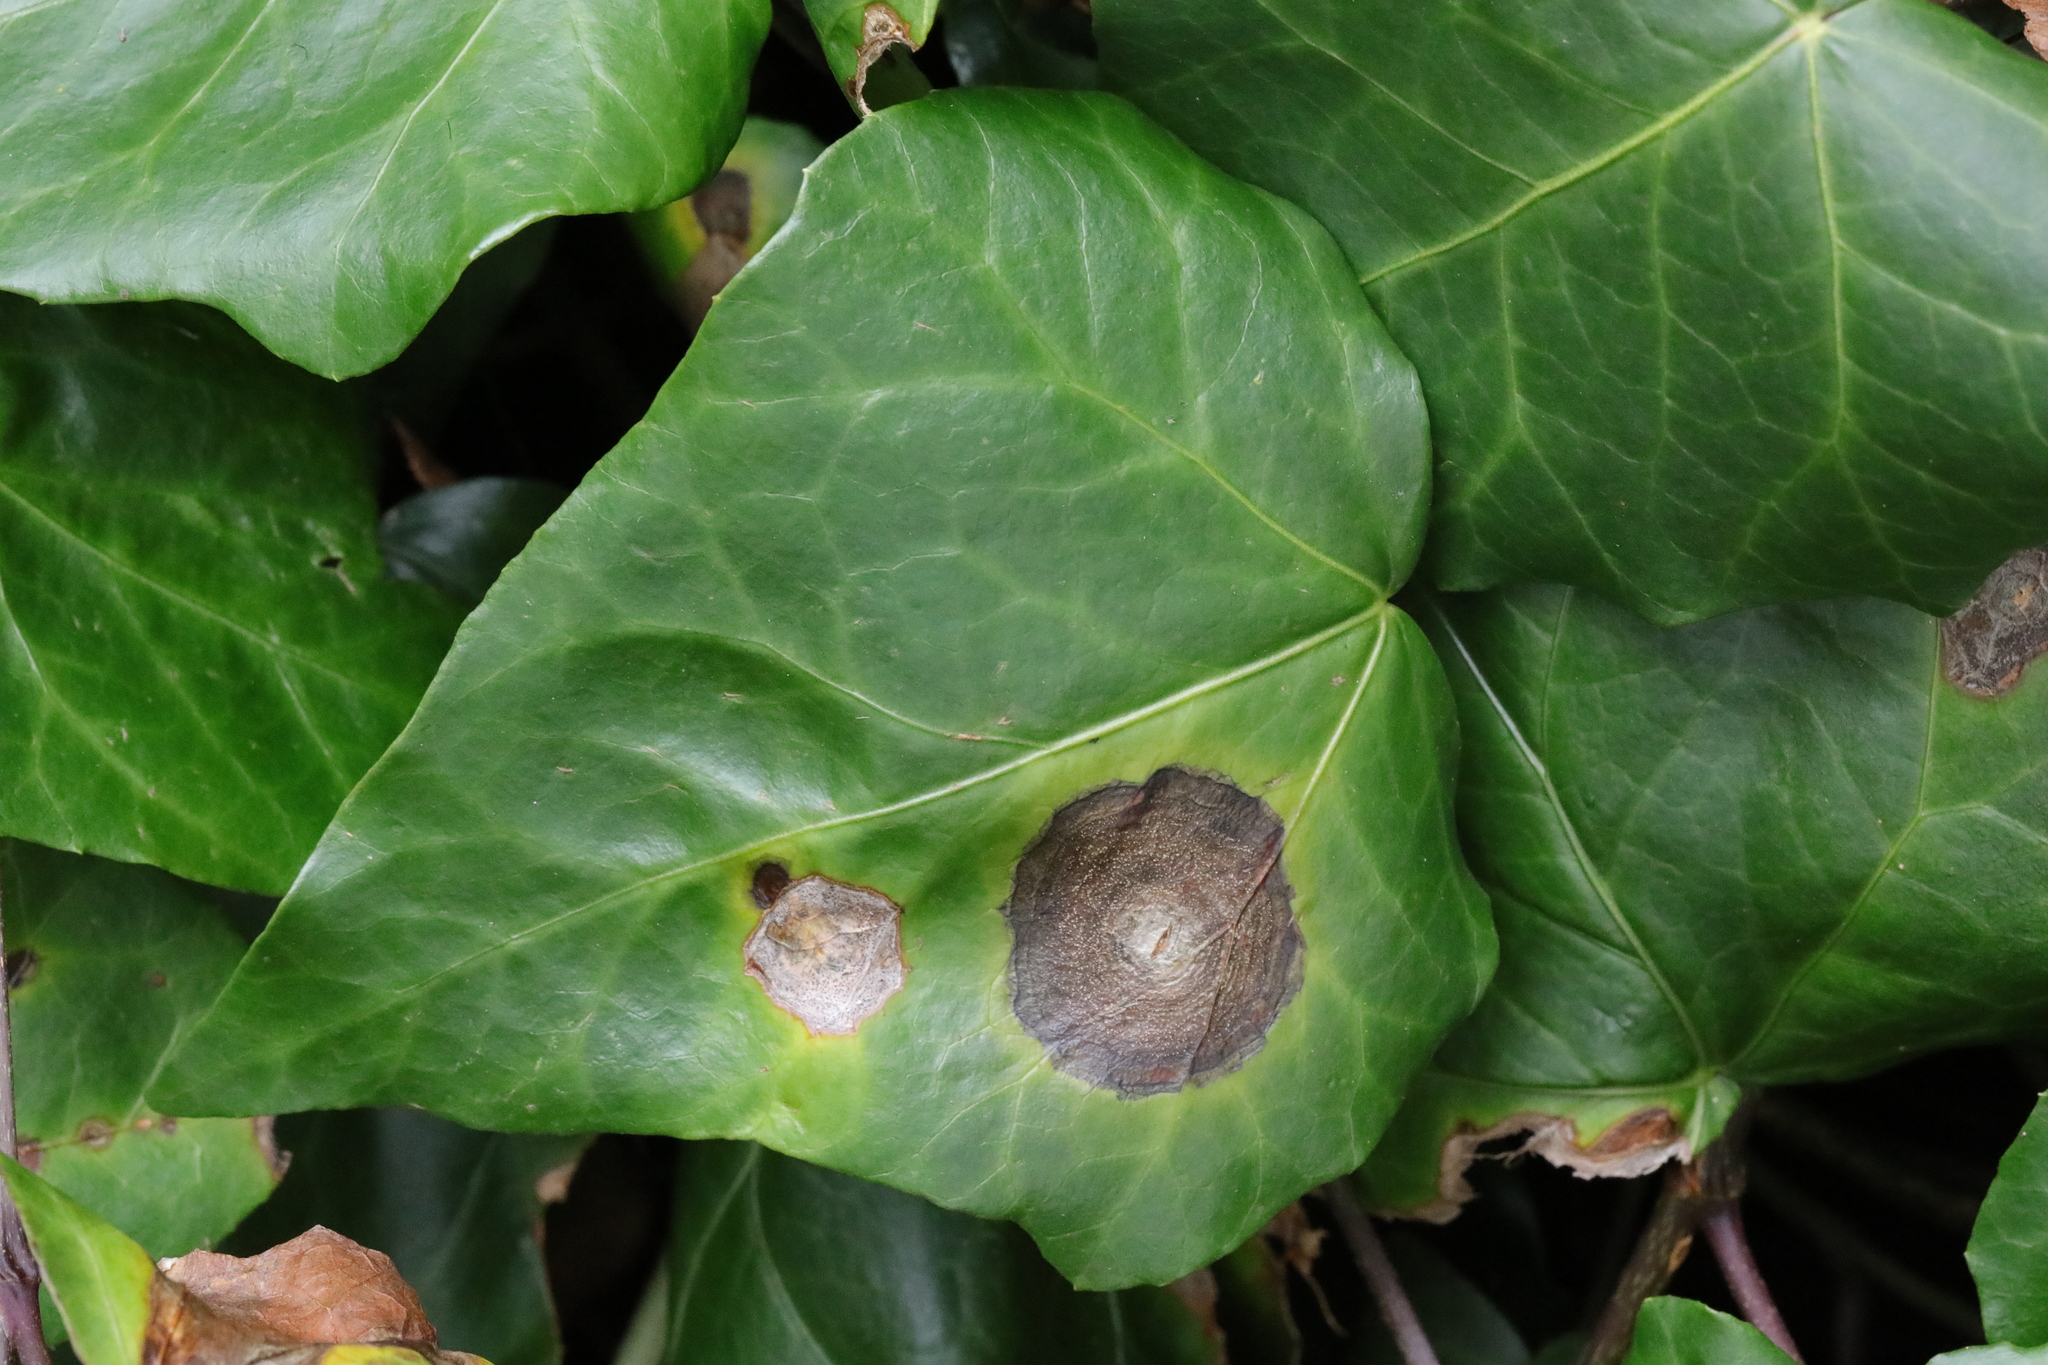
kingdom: Fungi
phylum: Ascomycota
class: Dothideomycetes
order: Pleosporales
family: Didymellaceae
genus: Boeremia
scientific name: Boeremia hedericola
